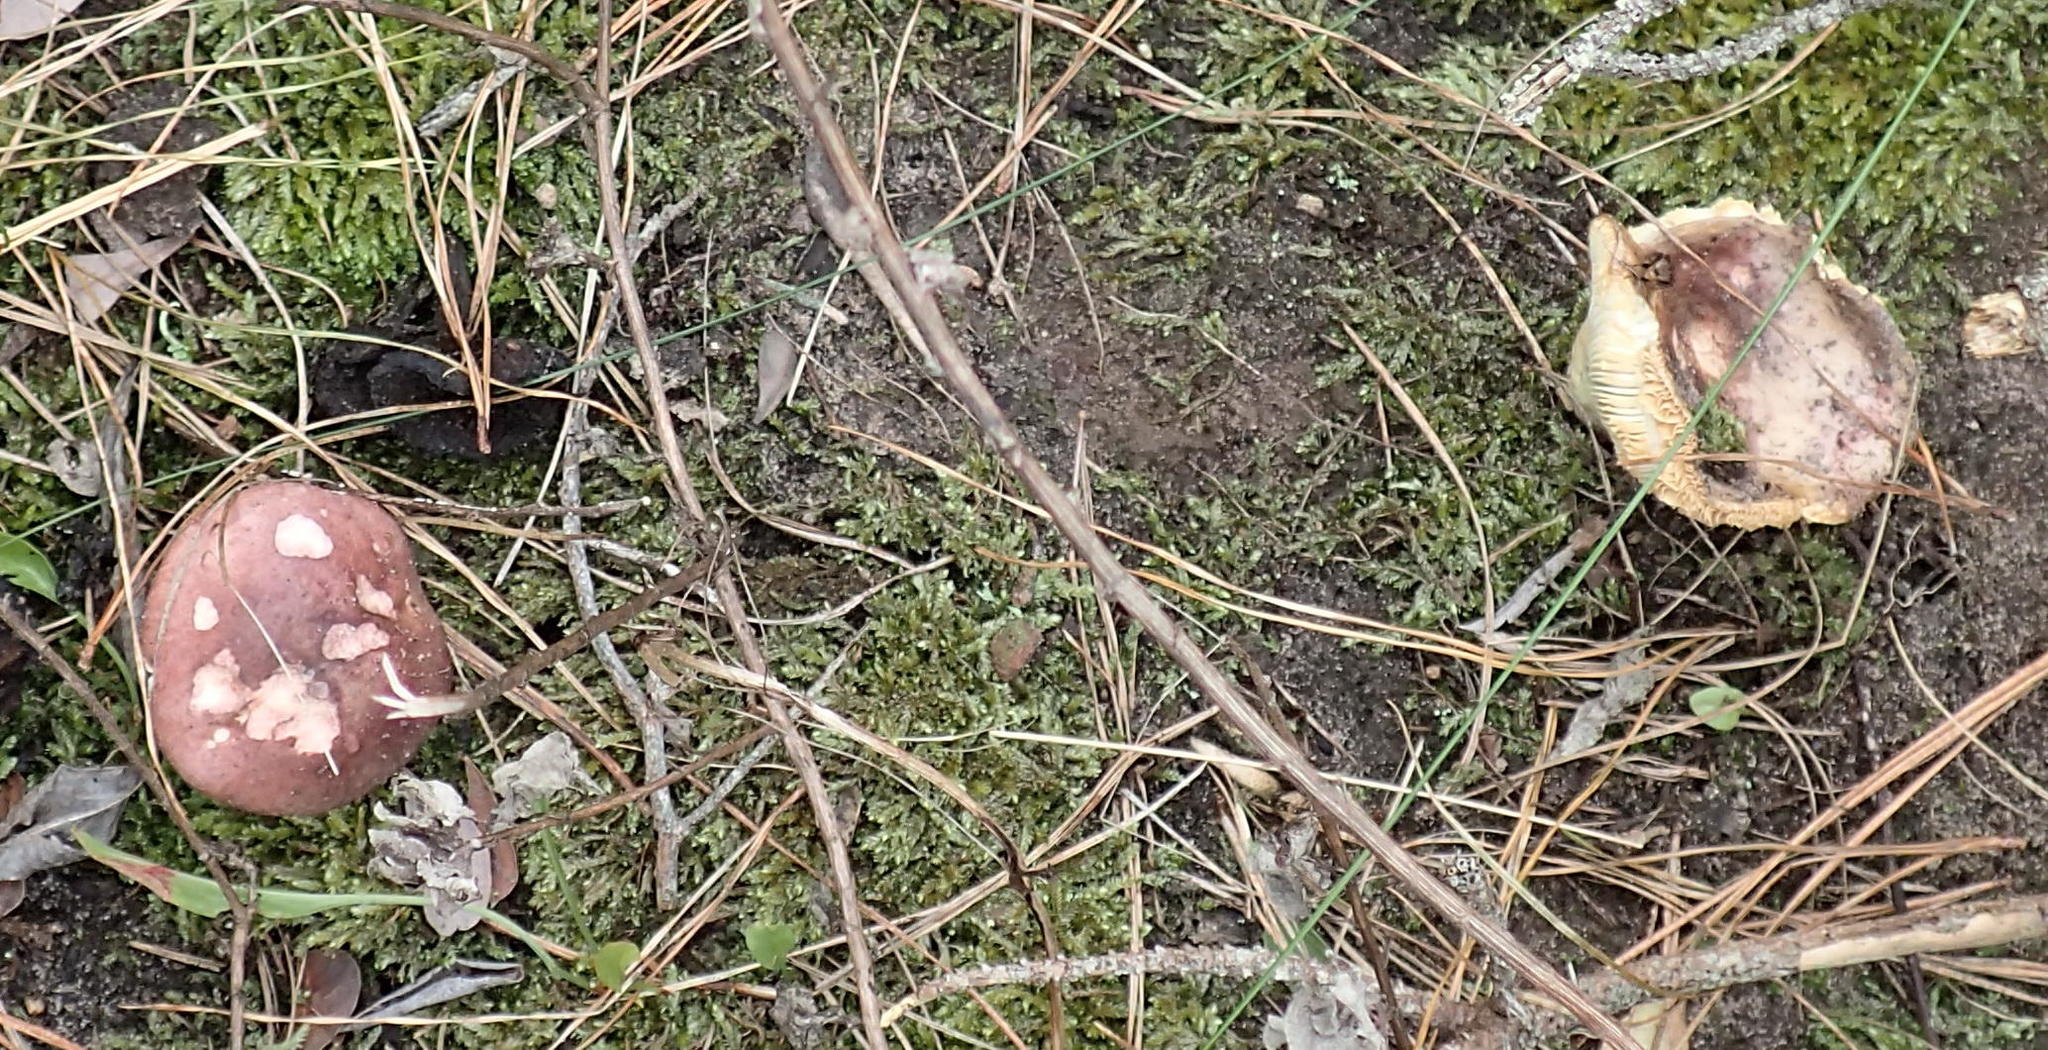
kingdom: Fungi
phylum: Basidiomycota
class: Agaricomycetes
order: Russulales
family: Russulaceae
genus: Russula
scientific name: Russula sardonia
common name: Primrose brittlegill
